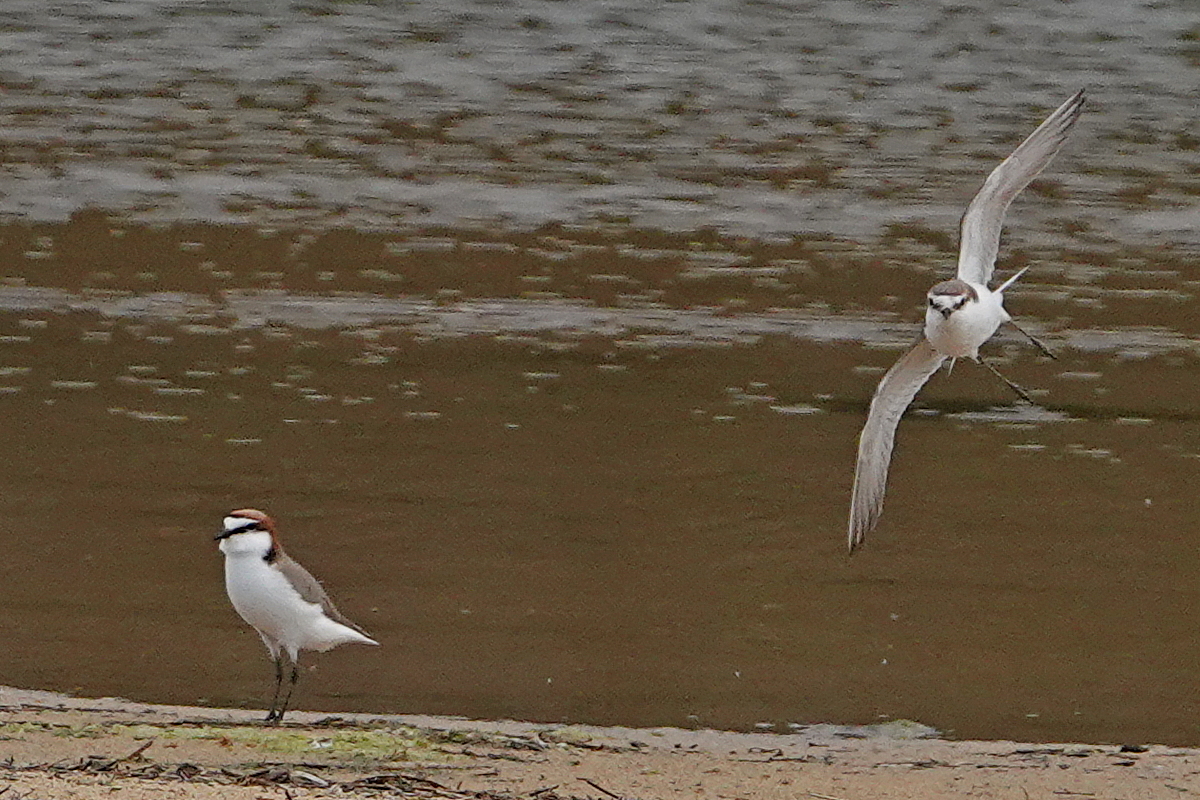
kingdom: Animalia
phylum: Chordata
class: Aves
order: Charadriiformes
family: Charadriidae
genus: Anarhynchus
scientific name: Anarhynchus
